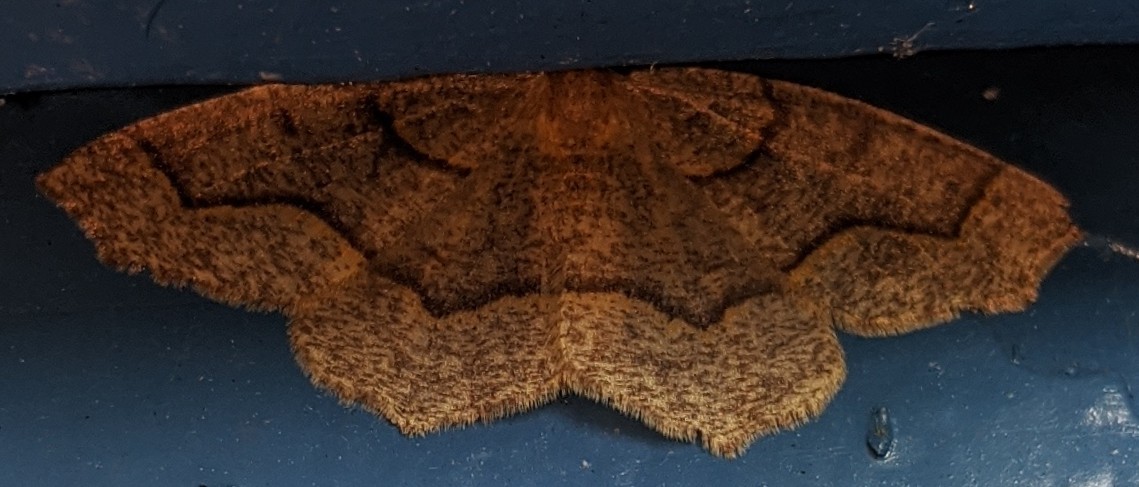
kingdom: Animalia
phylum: Arthropoda
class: Insecta
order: Lepidoptera
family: Geometridae
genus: Lambdina
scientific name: Lambdina fiscellaria
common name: Hemlock looper
